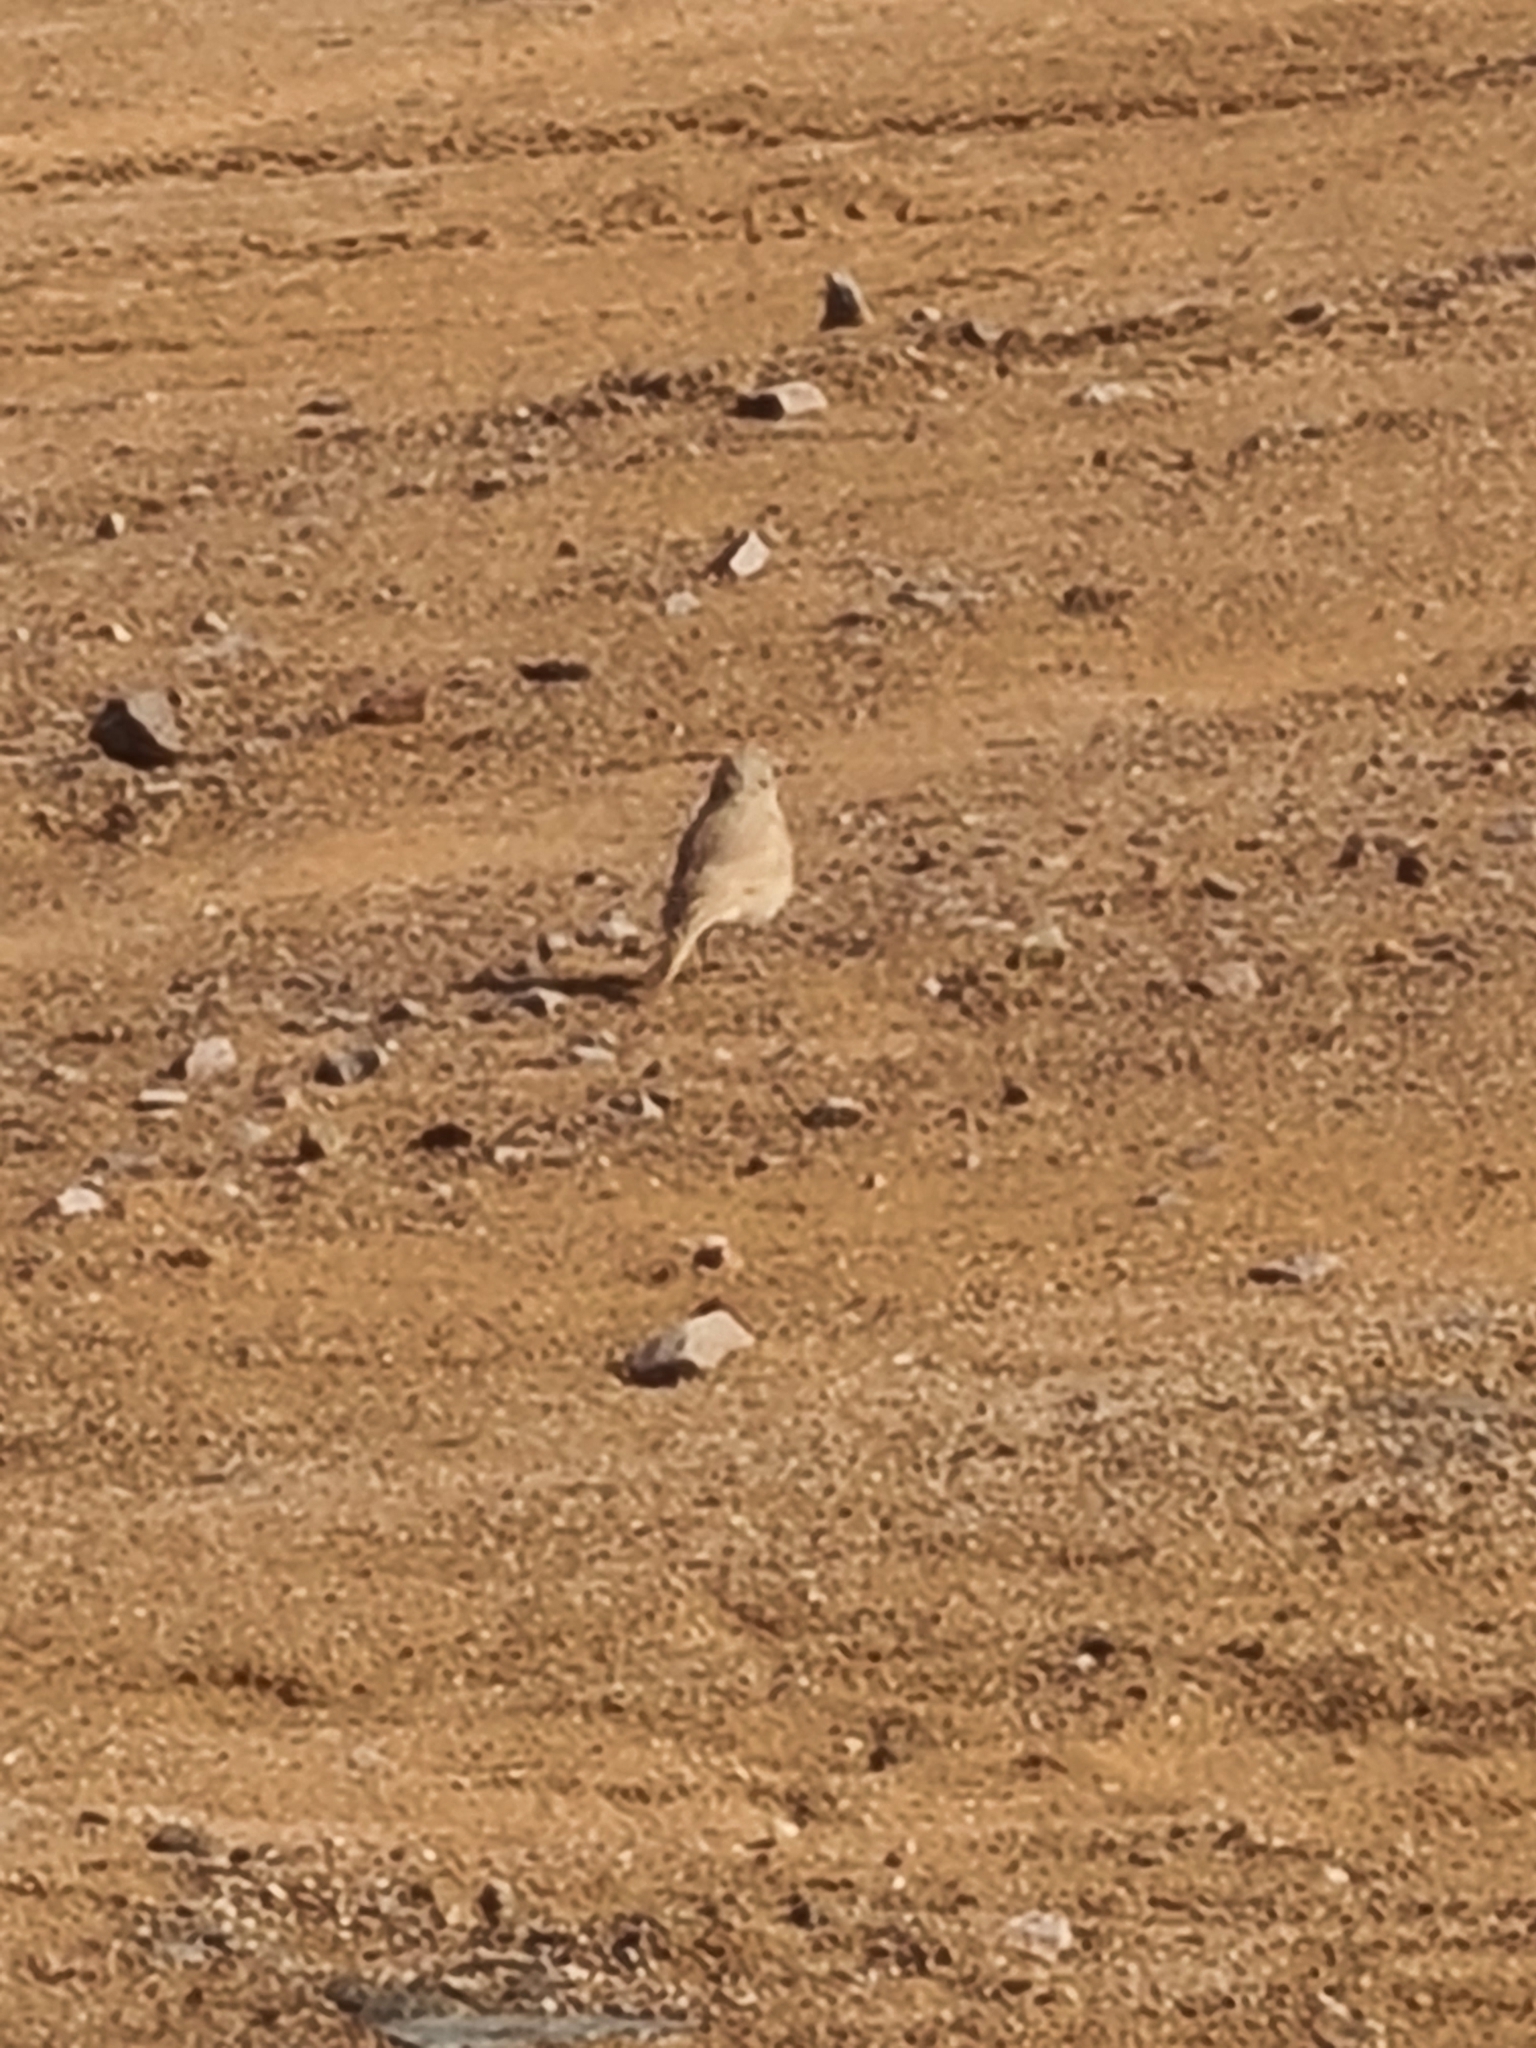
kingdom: Animalia
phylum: Chordata
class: Aves
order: Passeriformes
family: Alaudidae
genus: Ammomanes
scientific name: Ammomanes deserti
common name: Desert lark
